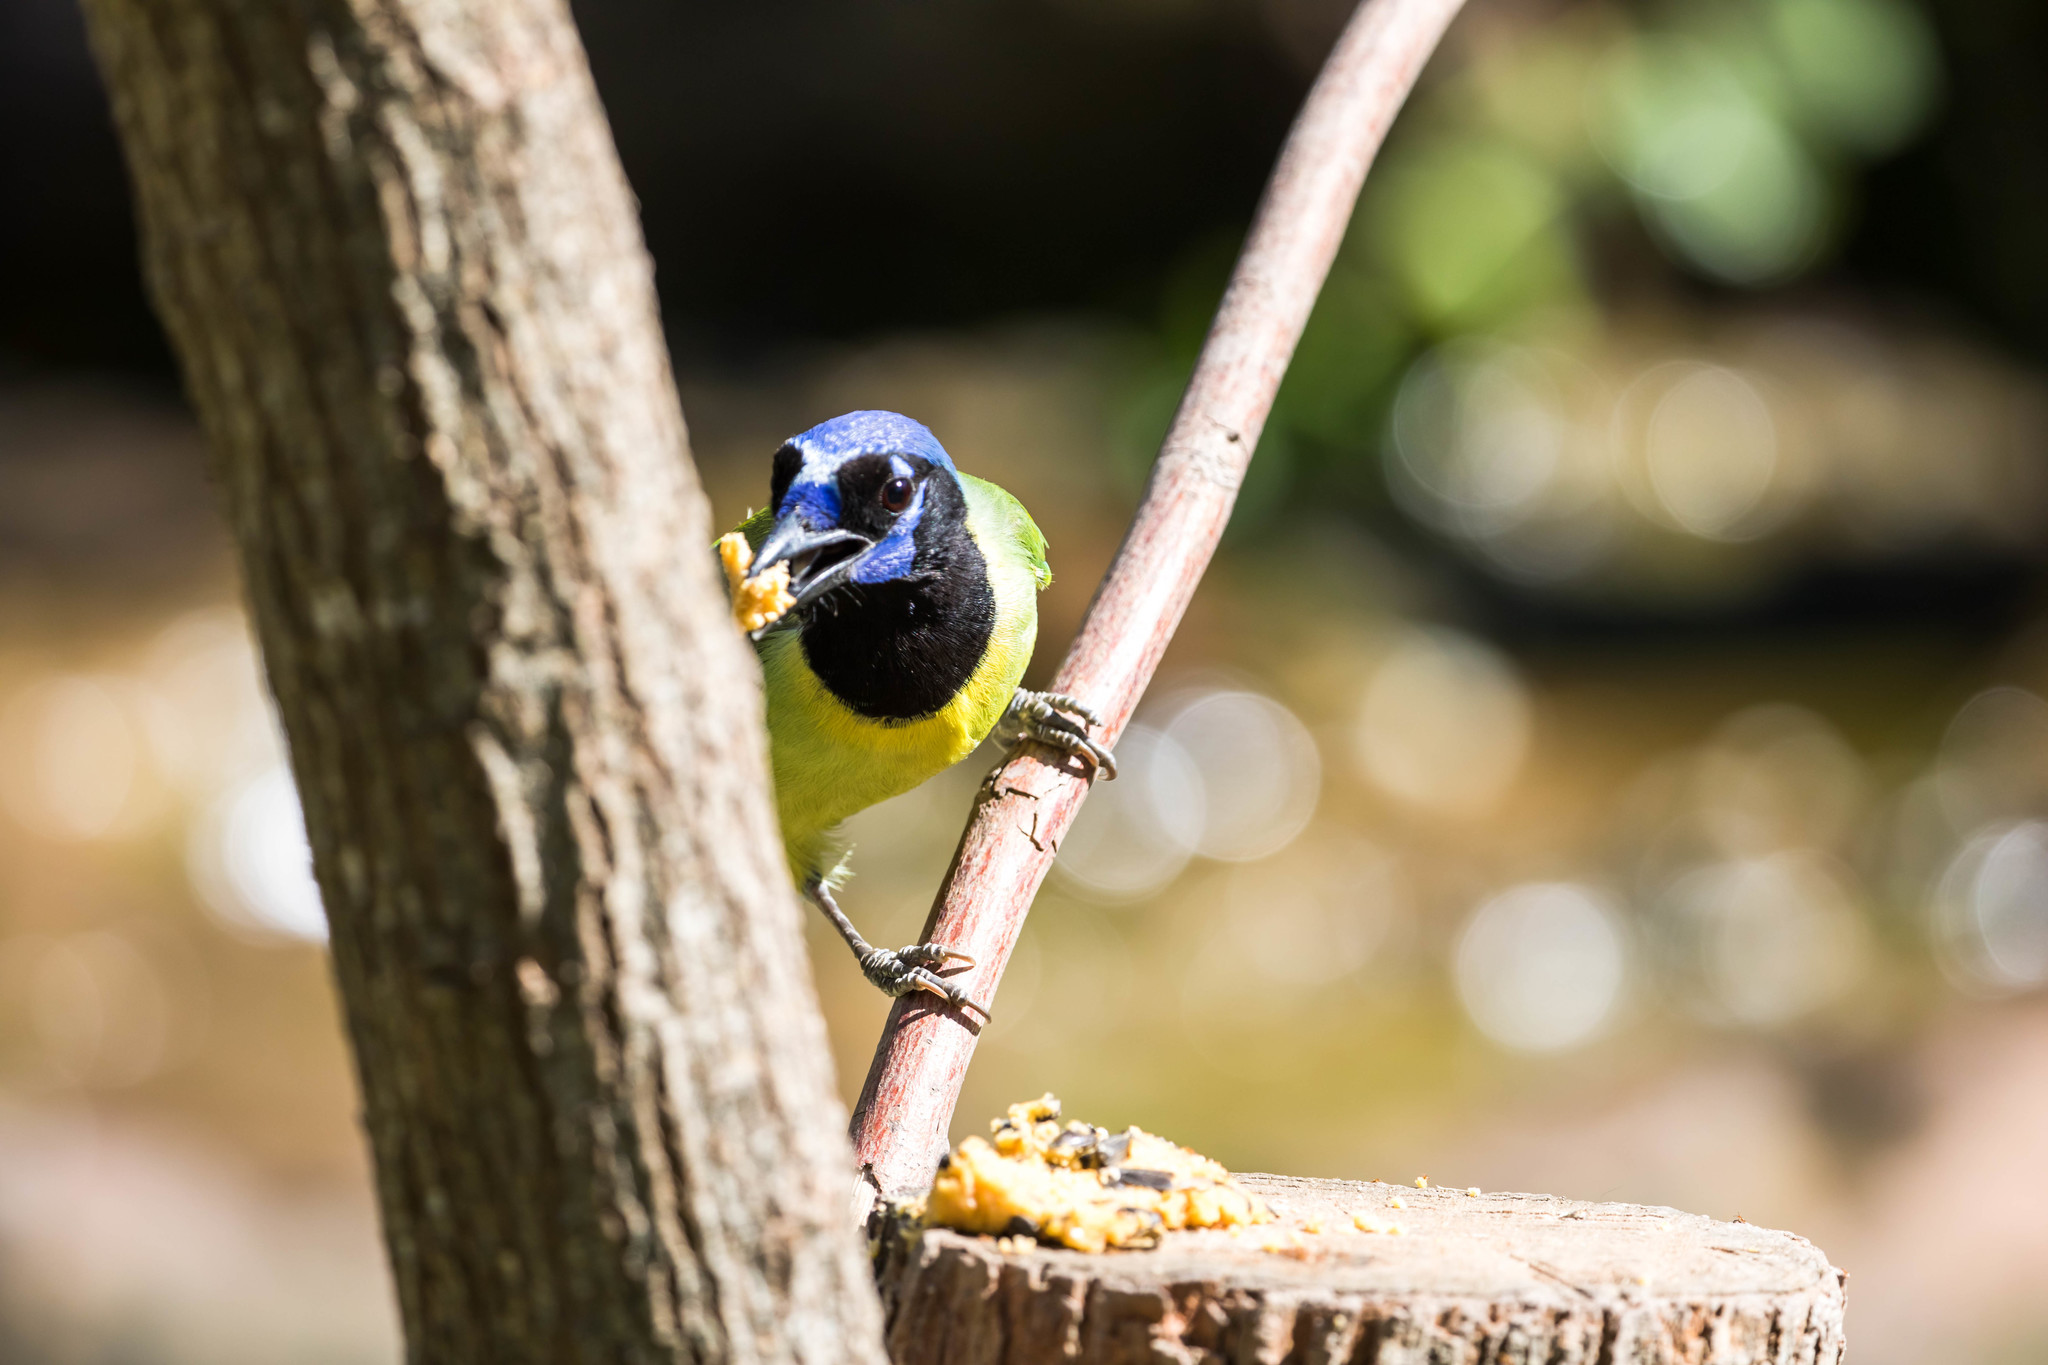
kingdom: Animalia
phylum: Chordata
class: Aves
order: Passeriformes
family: Corvidae
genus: Cyanocorax
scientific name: Cyanocorax yncas
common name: Green jay
